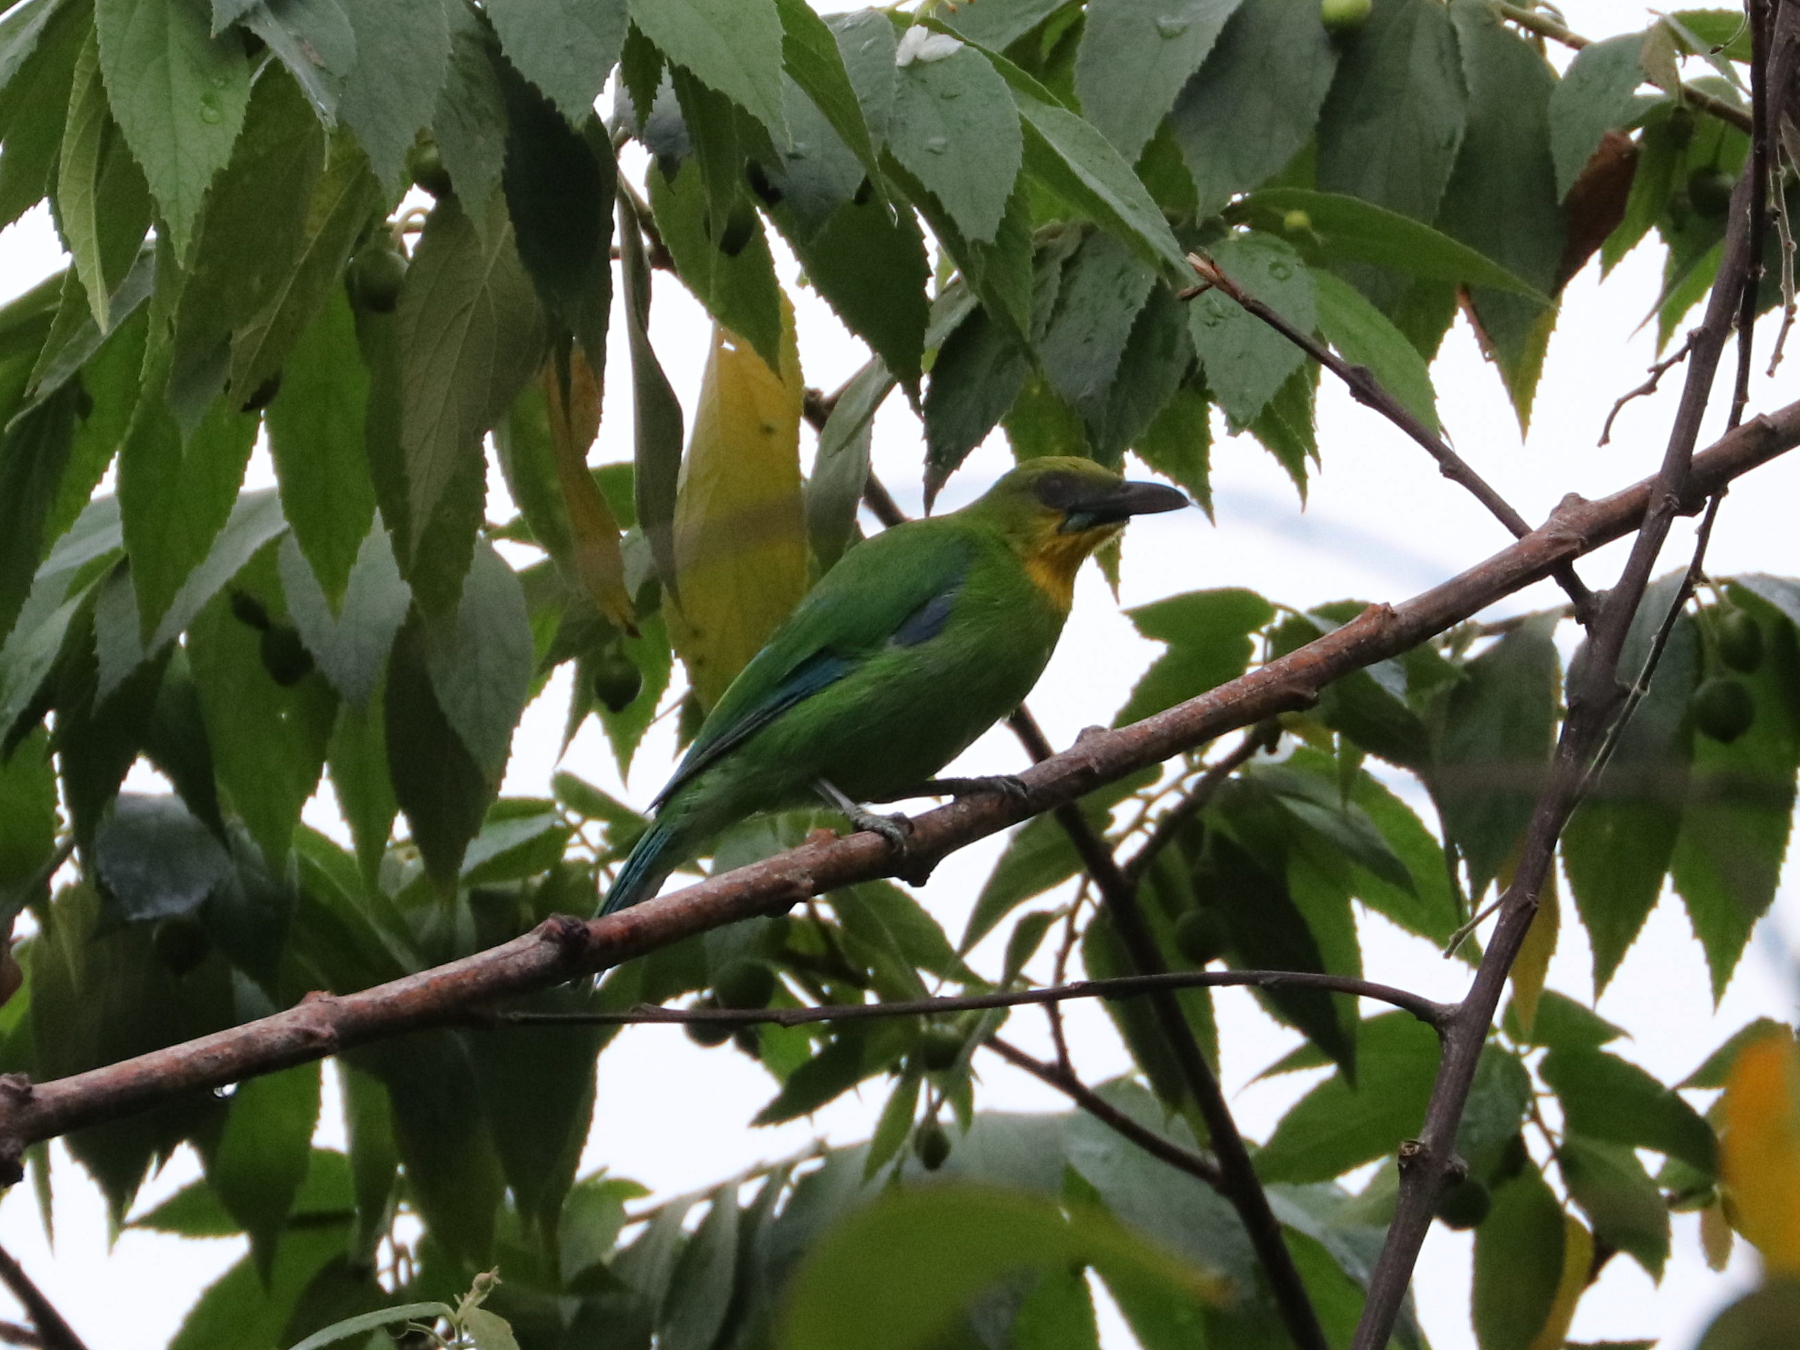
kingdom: Animalia
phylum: Chordata
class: Aves
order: Passeriformes
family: Chloropseidae
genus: Chloropsis
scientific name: Chloropsis palawanensis
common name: Yellow-throated leafbird
